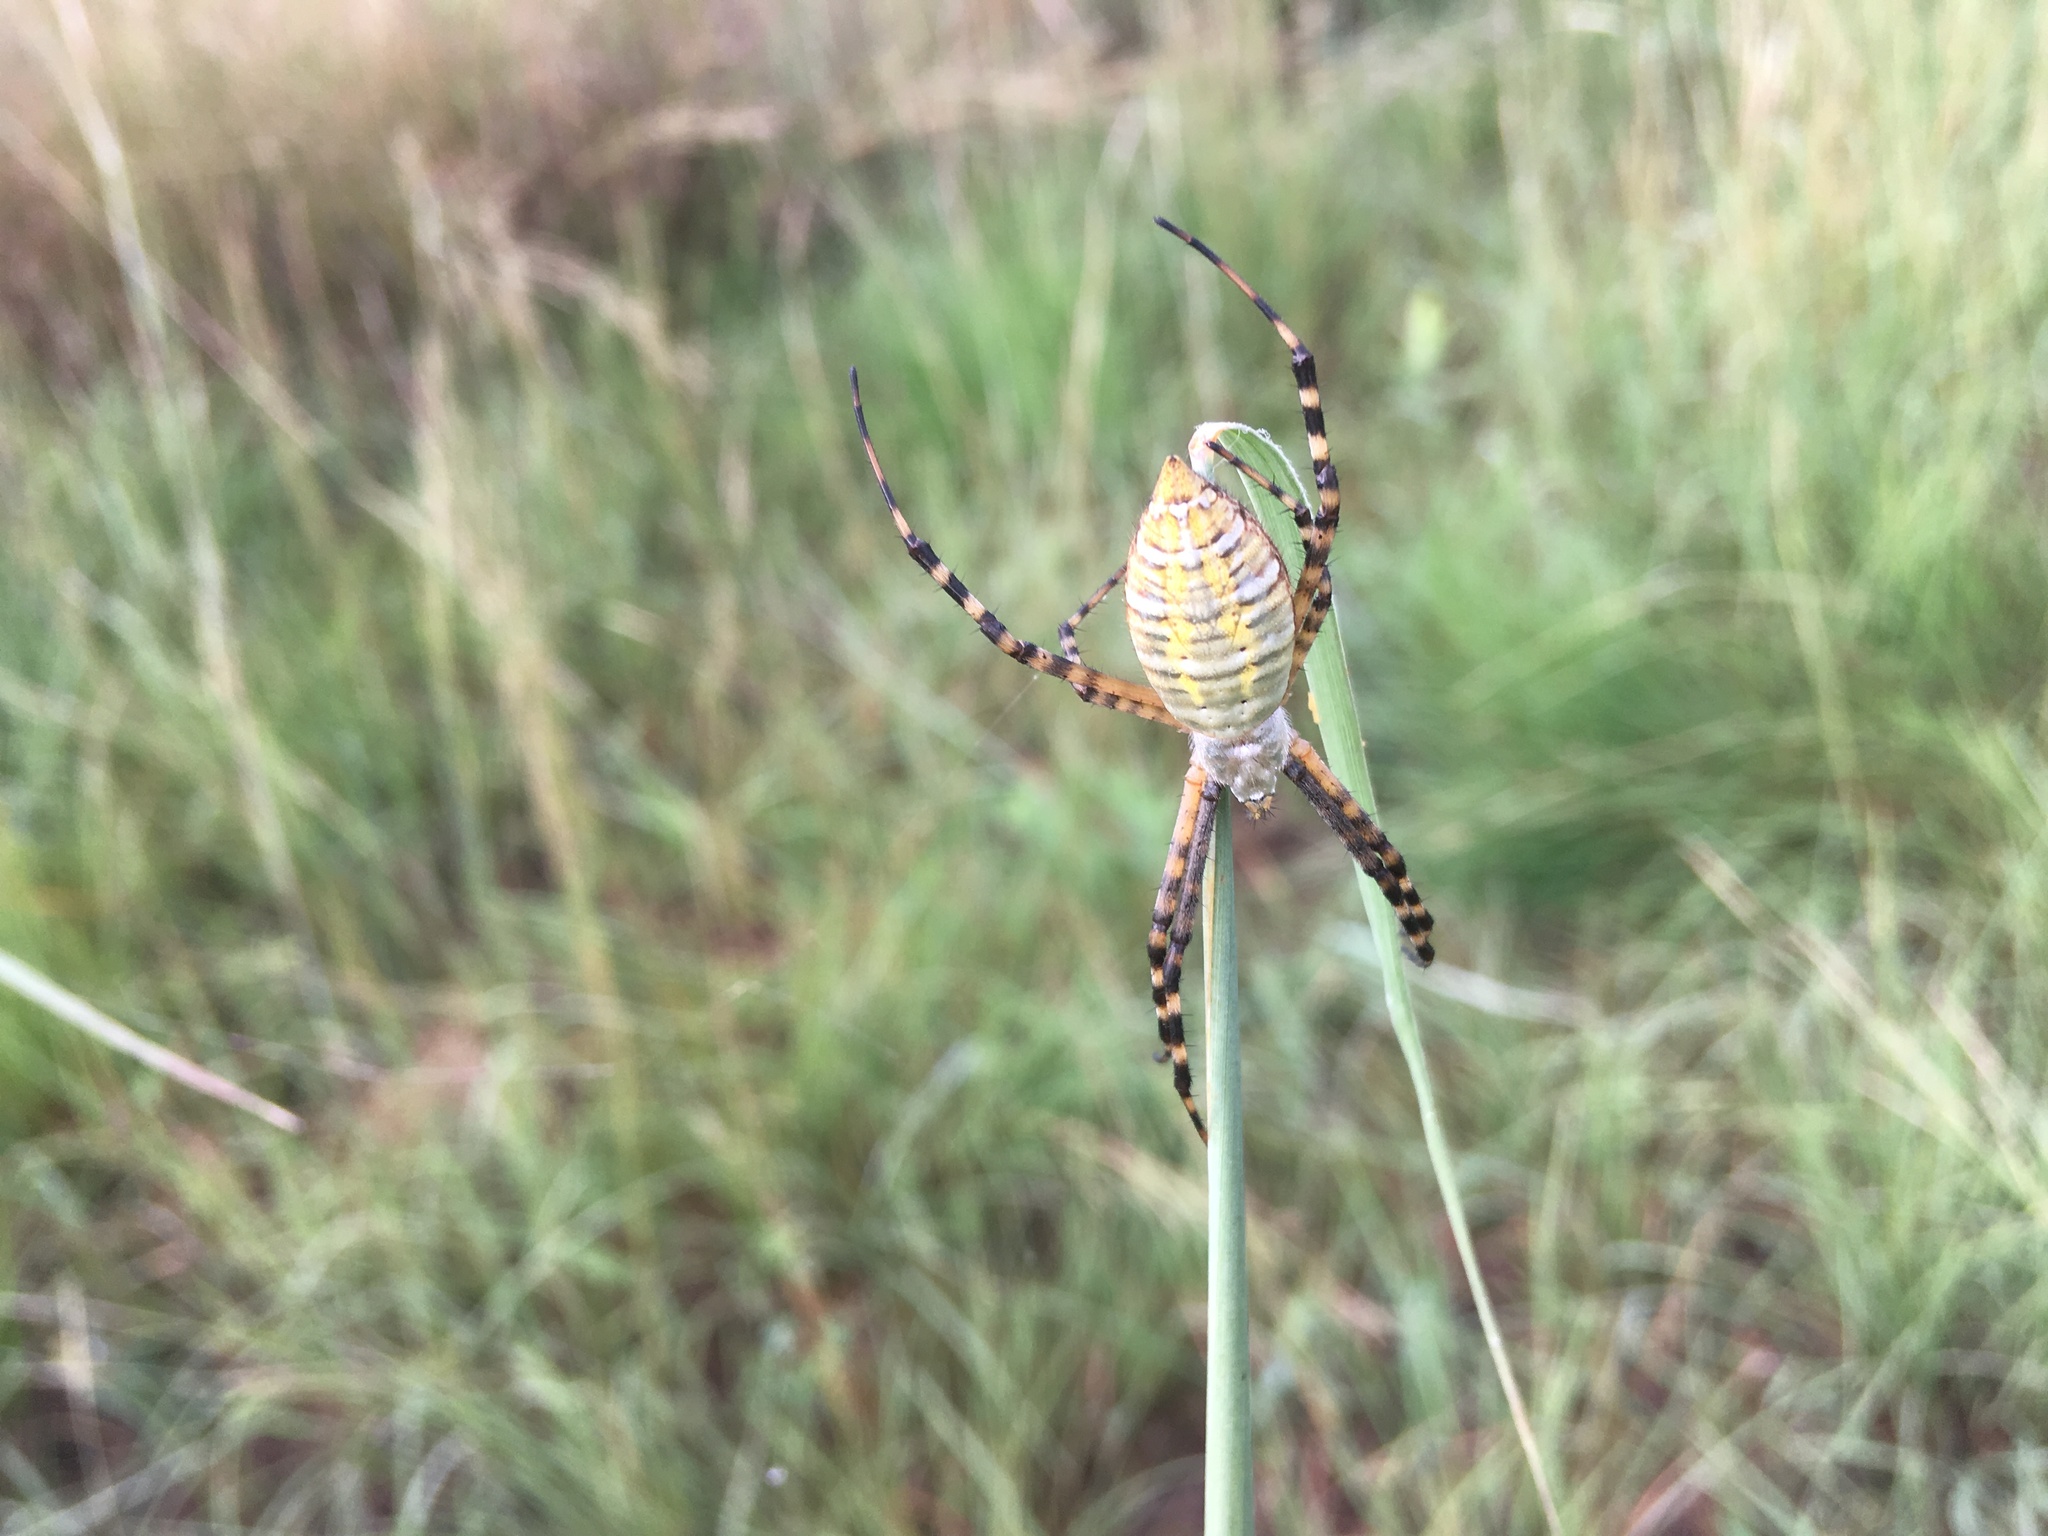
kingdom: Animalia
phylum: Arthropoda
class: Arachnida
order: Araneae
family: Araneidae
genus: Argiope
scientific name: Argiope trifasciata
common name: Banded garden spider
